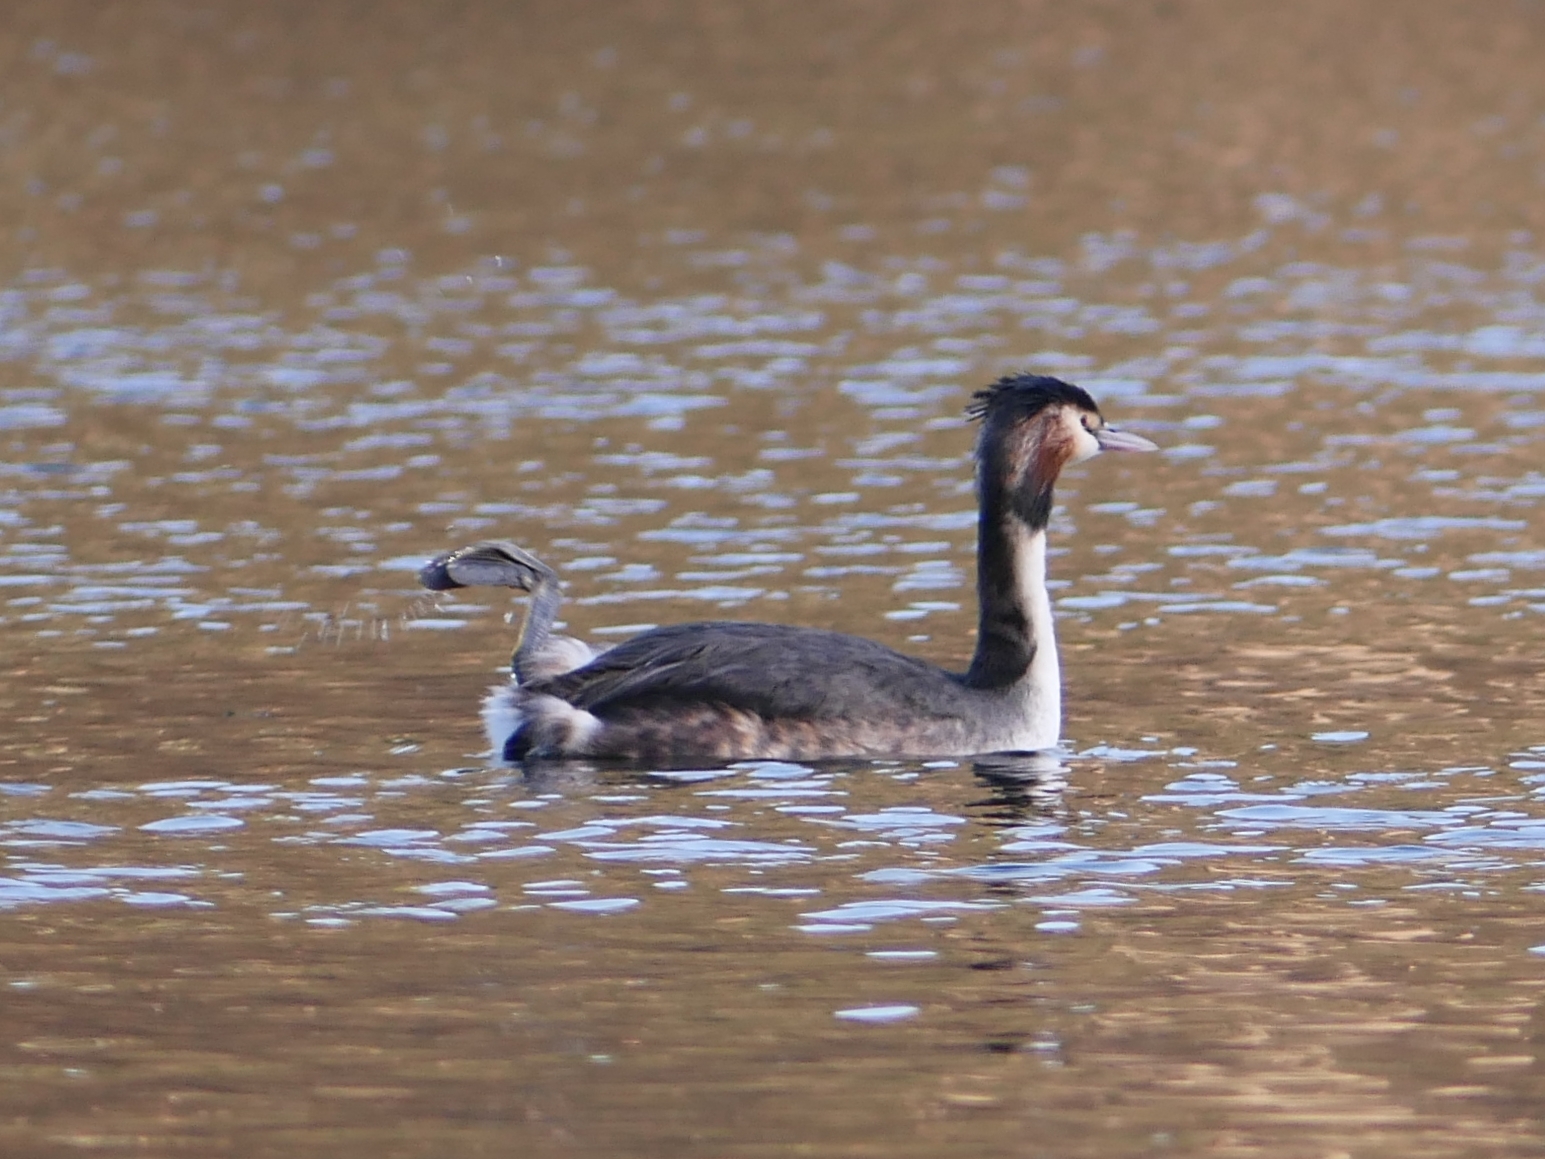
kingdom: Animalia
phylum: Chordata
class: Aves
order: Podicipediformes
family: Podicipedidae
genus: Podiceps
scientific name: Podiceps cristatus
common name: Great crested grebe
